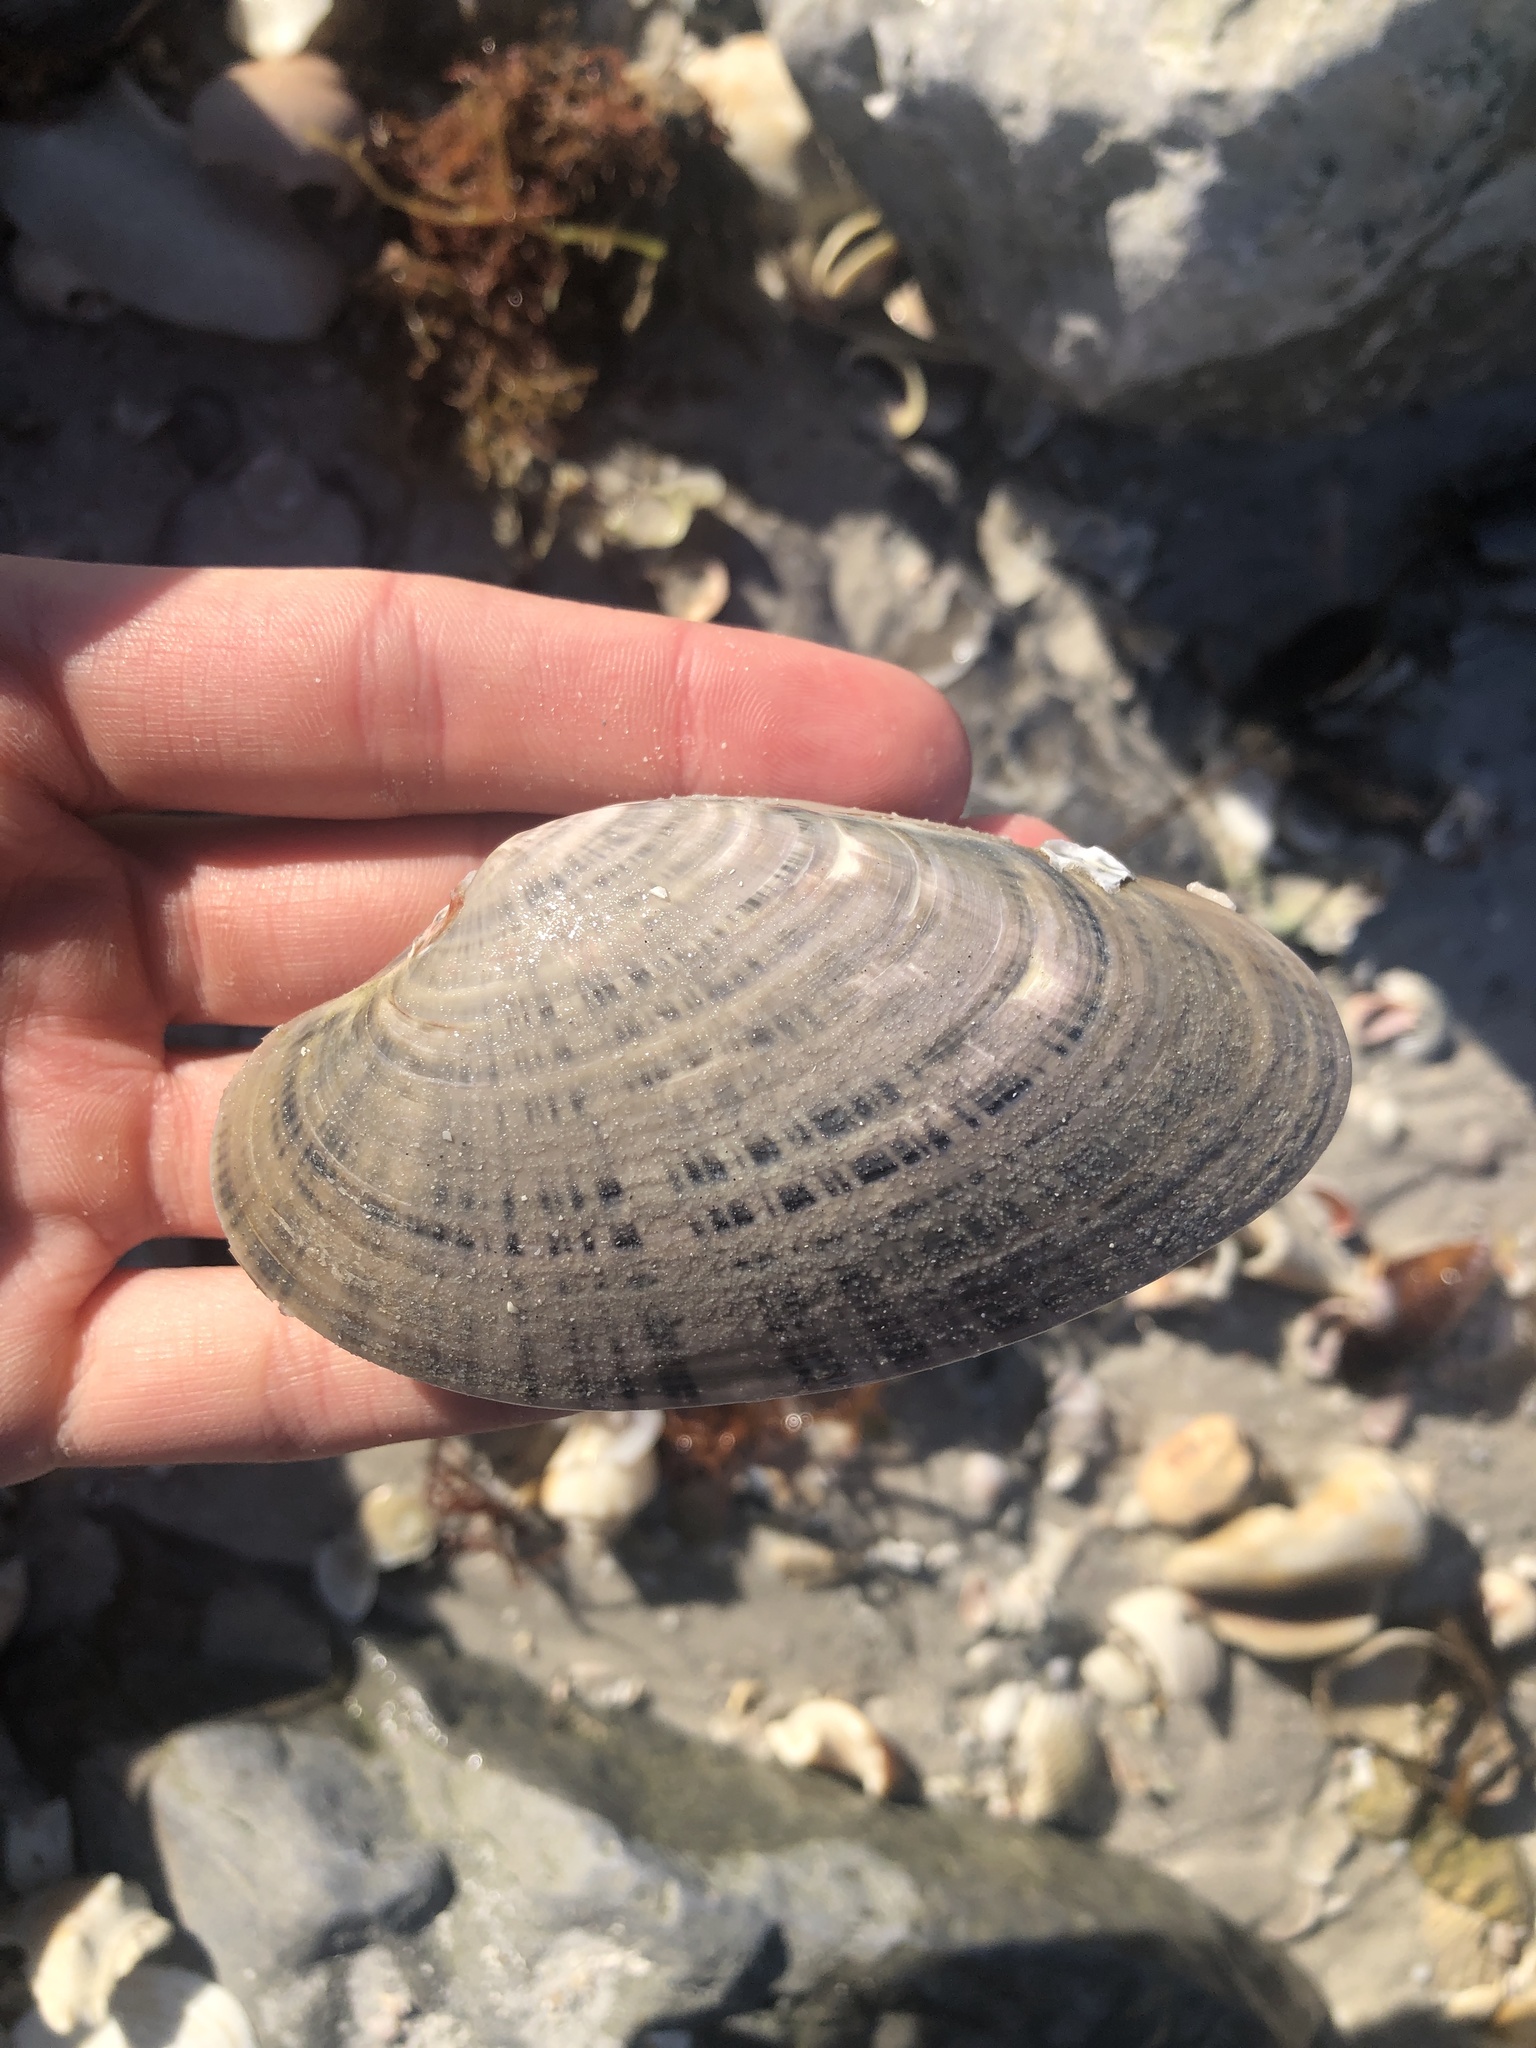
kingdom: Animalia
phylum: Mollusca
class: Bivalvia
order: Venerida
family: Veneridae
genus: Macrocallista
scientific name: Macrocallista nimbosa
